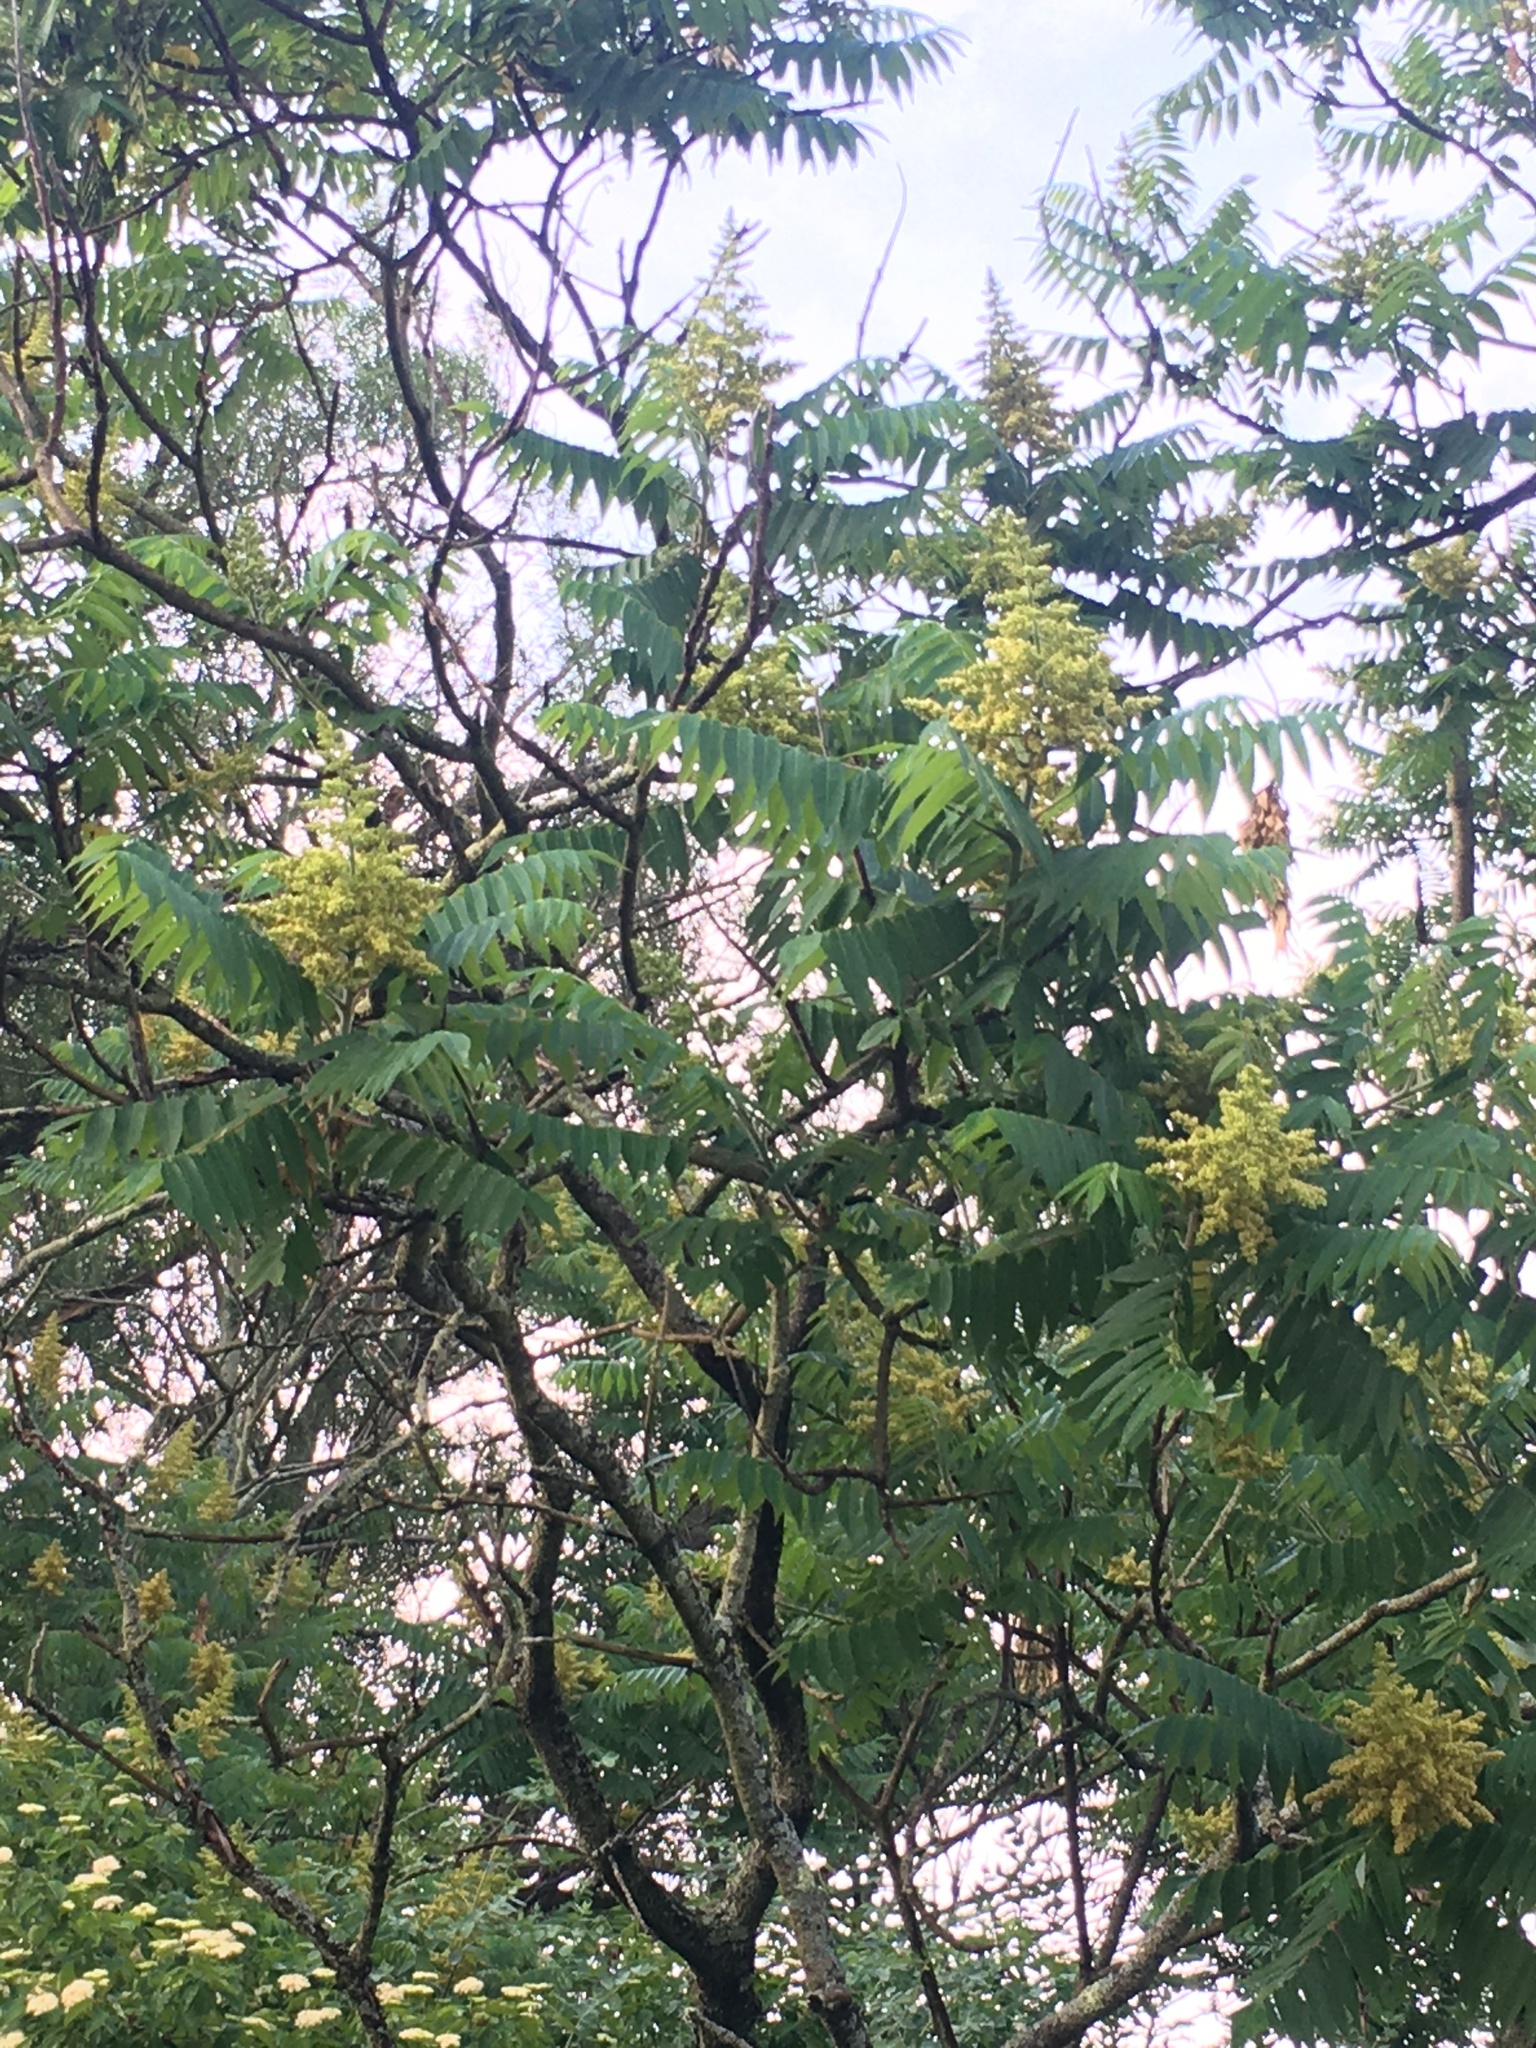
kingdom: Plantae
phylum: Tracheophyta
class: Magnoliopsida
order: Sapindales
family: Anacardiaceae
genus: Rhus
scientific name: Rhus typhina
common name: Staghorn sumac
